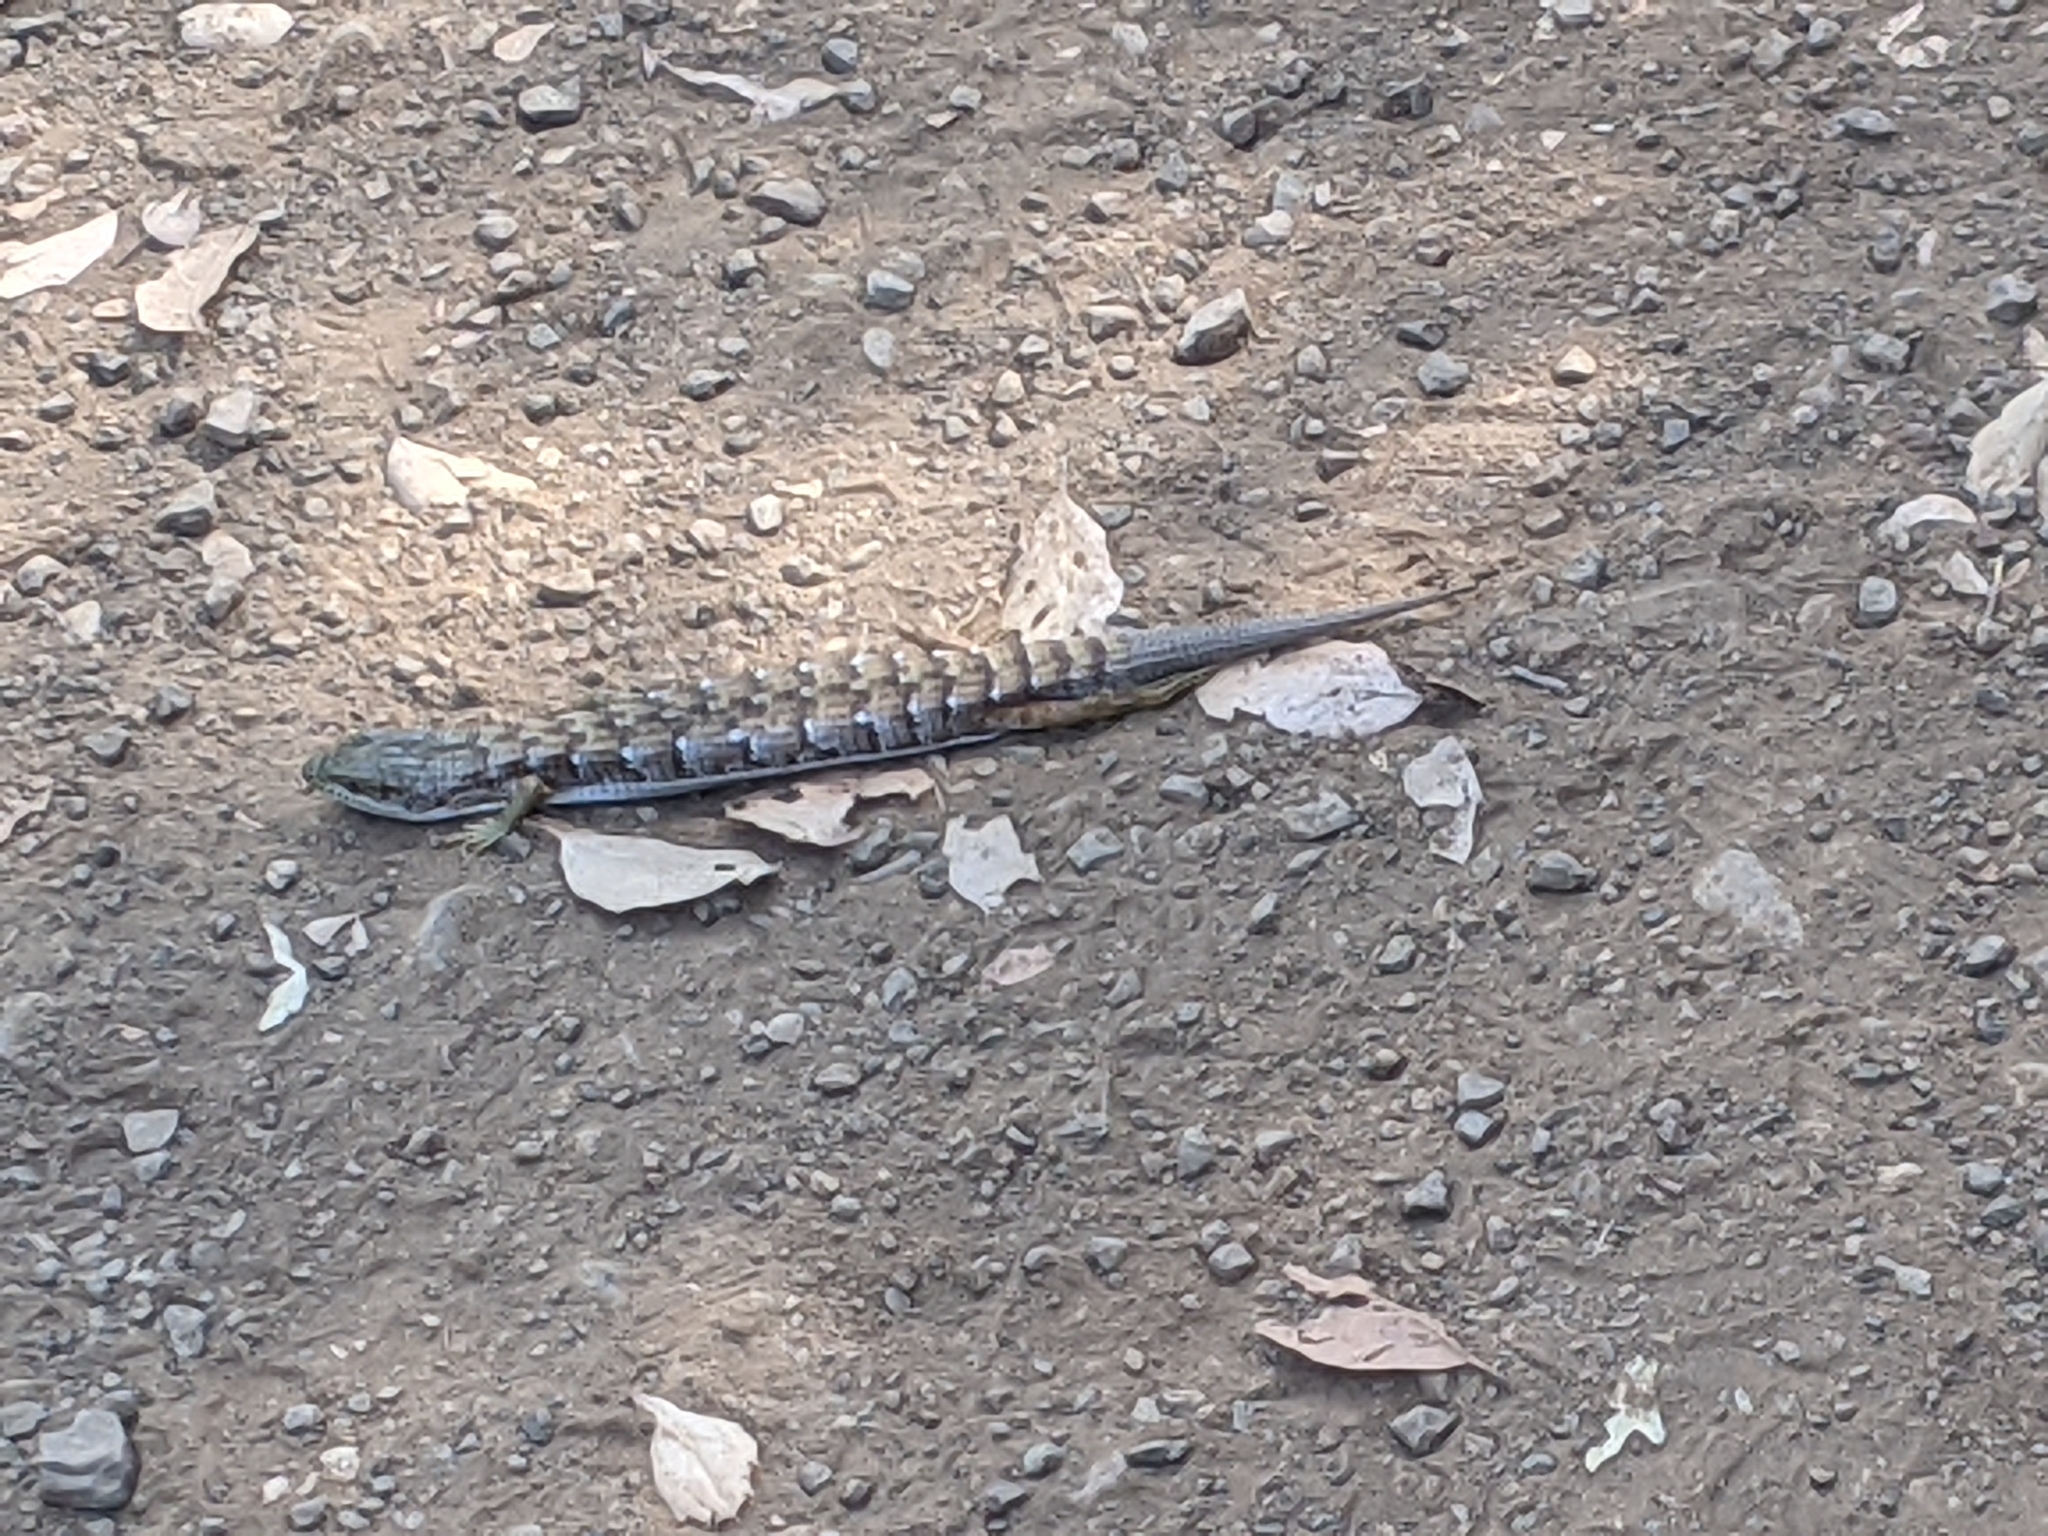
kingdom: Animalia
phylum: Chordata
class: Squamata
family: Anguidae
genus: Elgaria
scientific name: Elgaria multicarinata
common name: Southern alligator lizard
